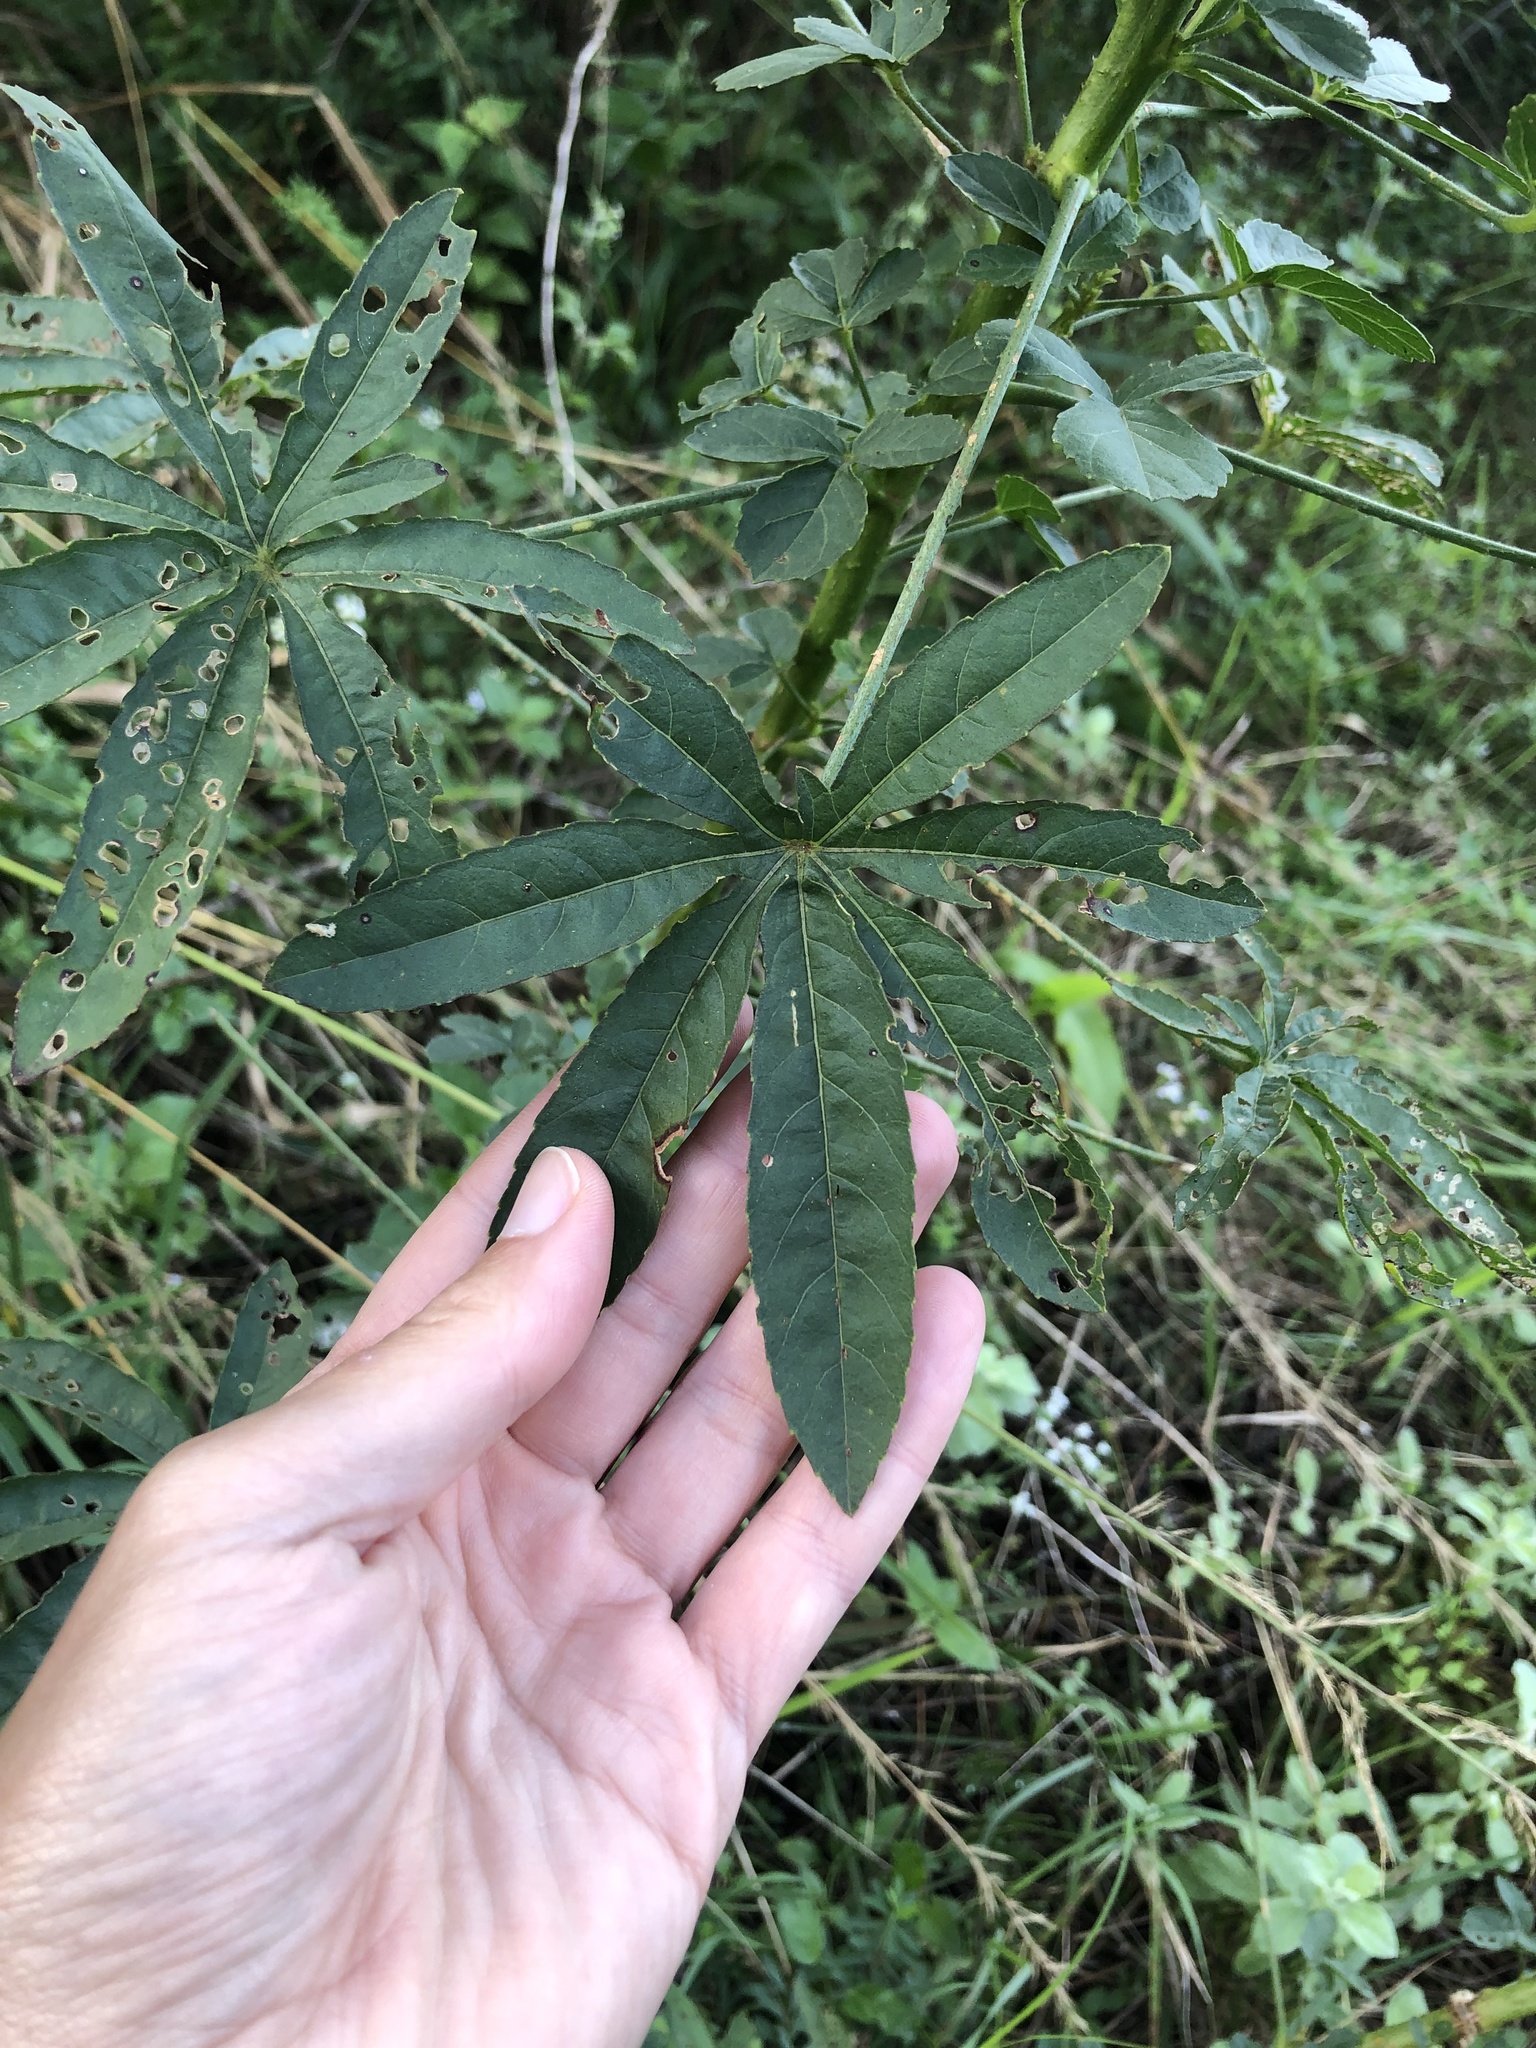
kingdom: Plantae
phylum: Tracheophyta
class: Magnoliopsida
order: Malvales
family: Malvaceae
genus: Hibiscus
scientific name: Hibiscus cannabinus
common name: Brown indianhemp
